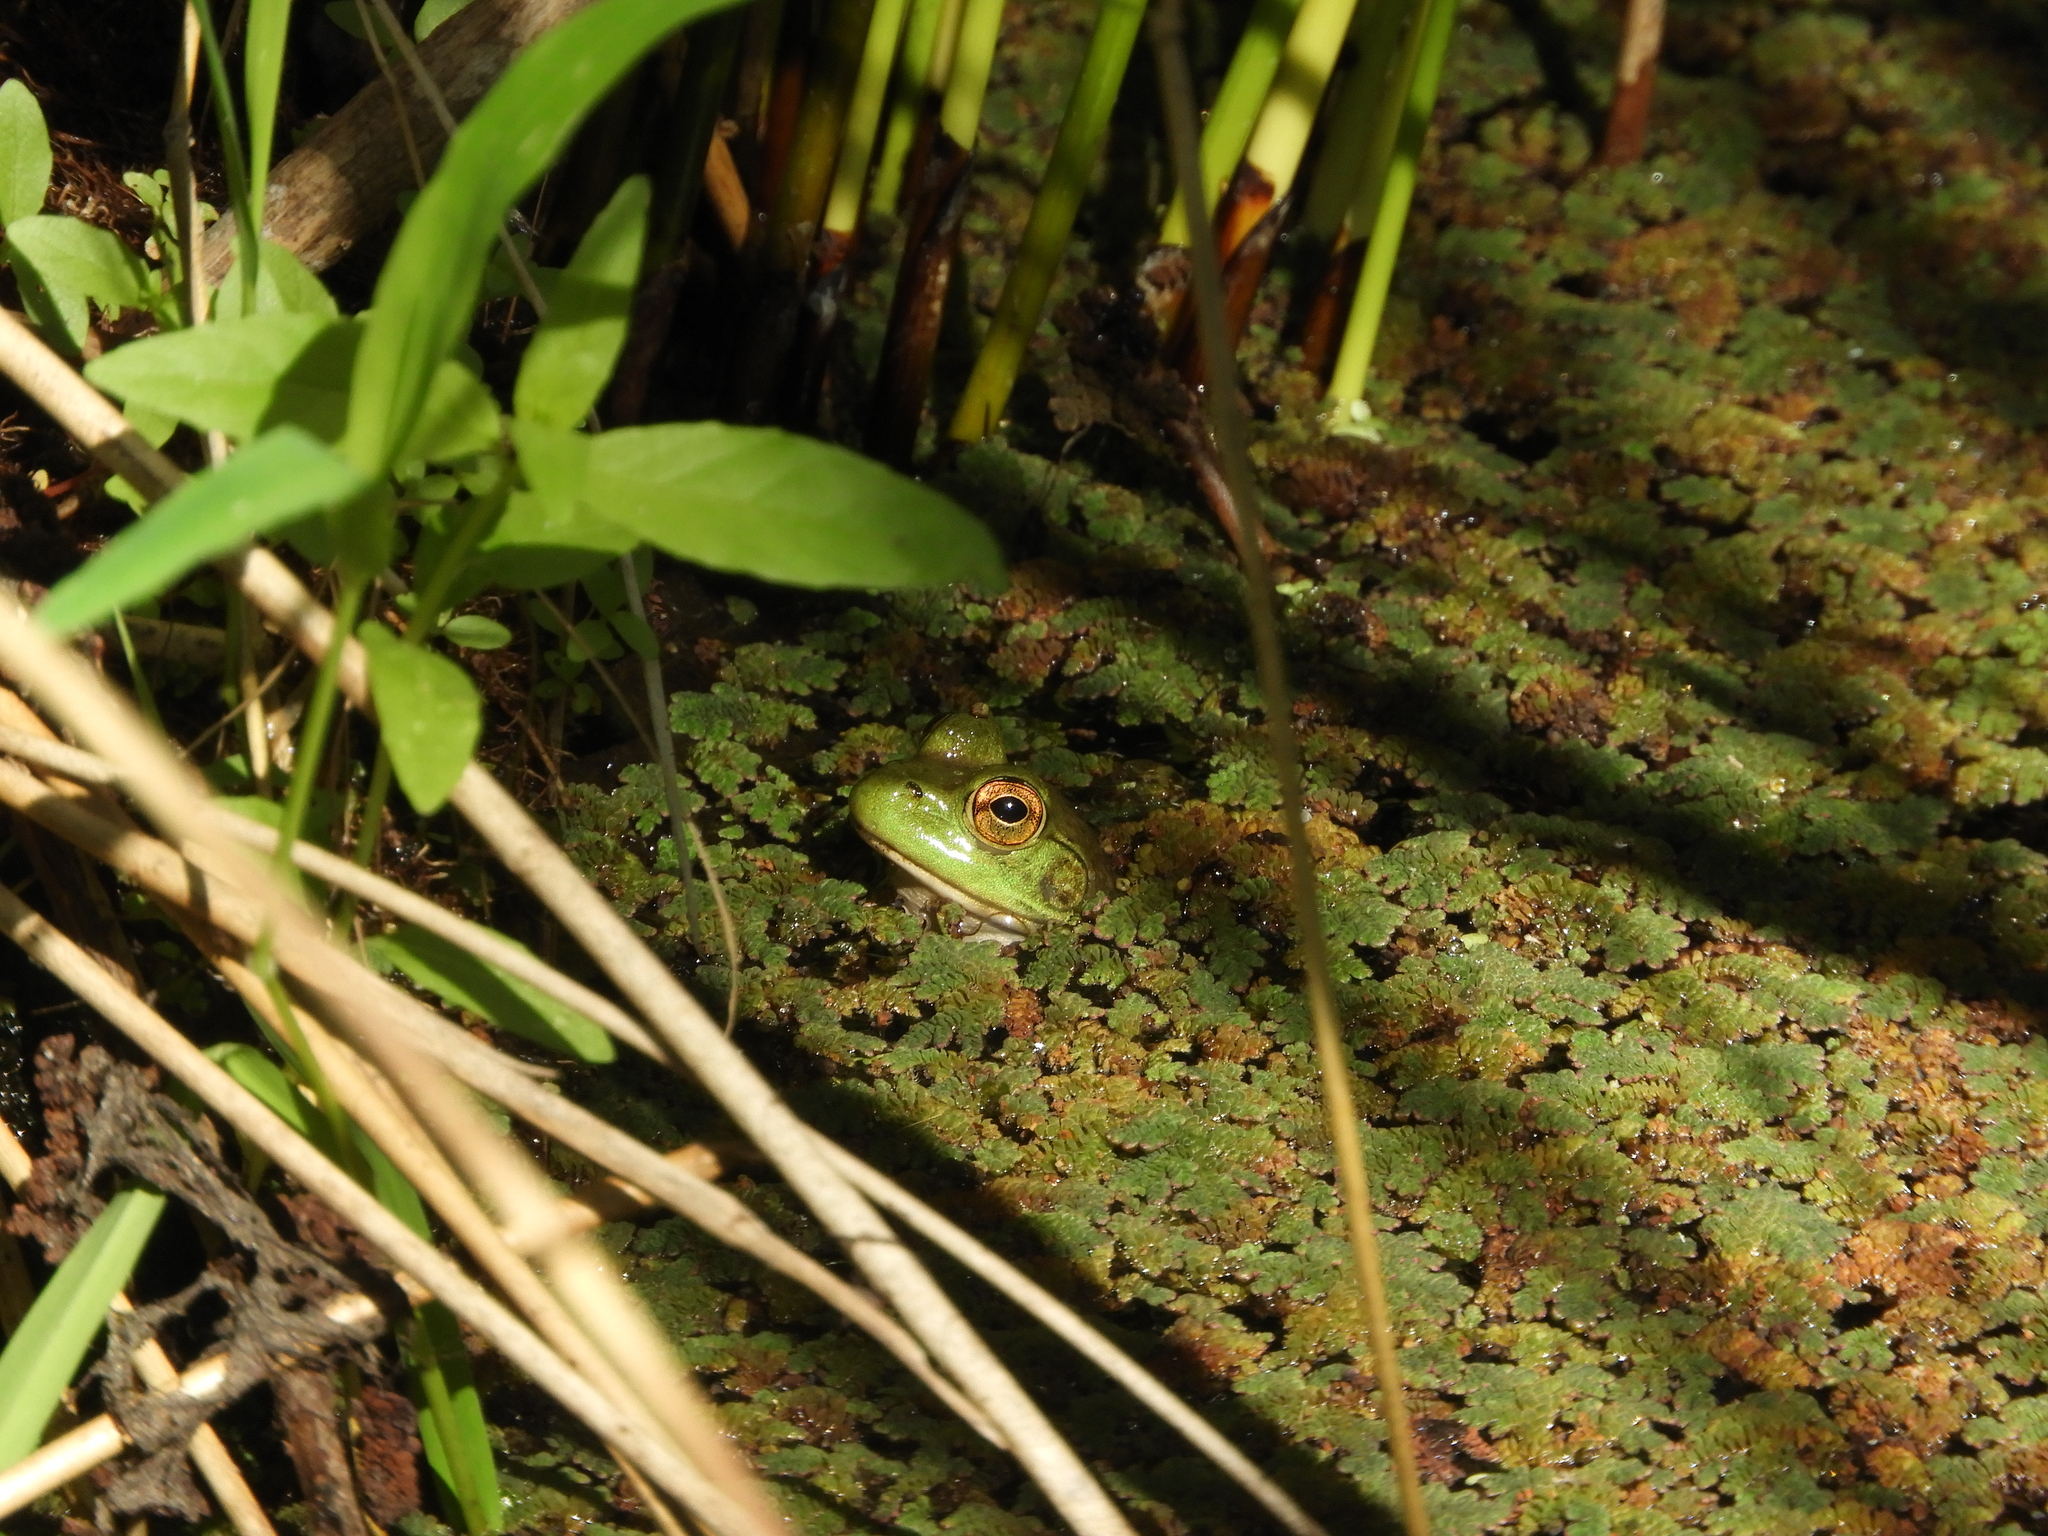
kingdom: Animalia
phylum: Chordata
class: Amphibia
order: Anura
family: Ranidae
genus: Lithobates
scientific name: Lithobates catesbeianus
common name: American bullfrog
